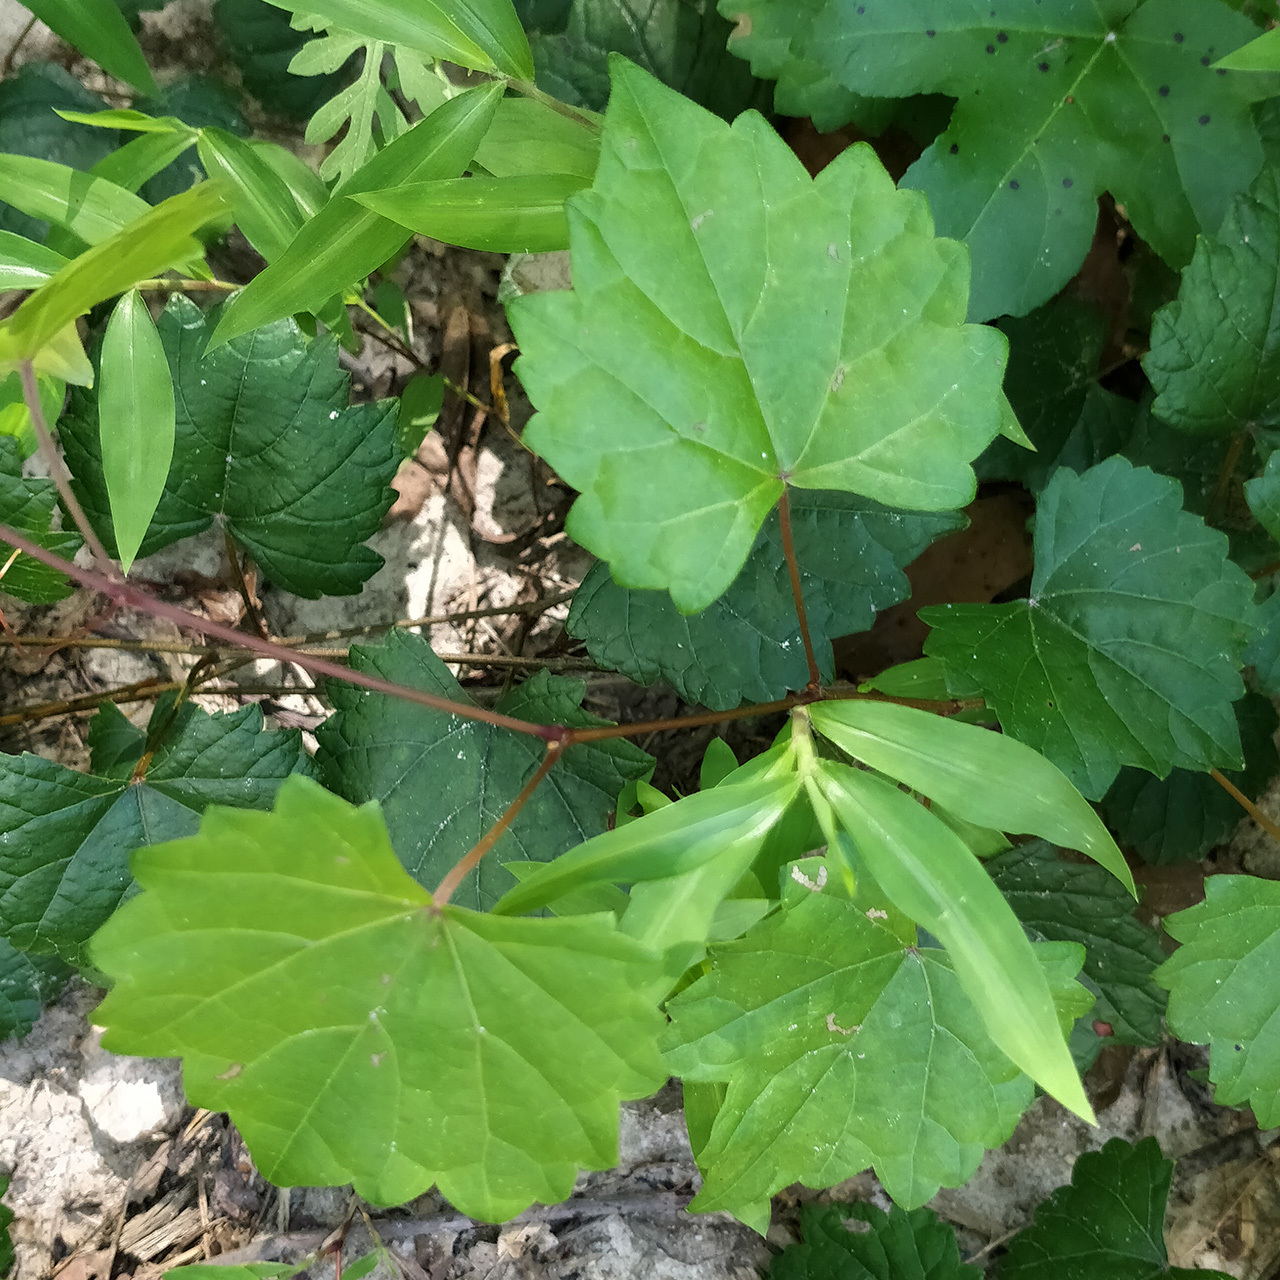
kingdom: Plantae
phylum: Tracheophyta
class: Magnoliopsida
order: Vitales
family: Vitaceae
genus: Vitis
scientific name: Vitis rotundifolia
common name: Muscadine grape
